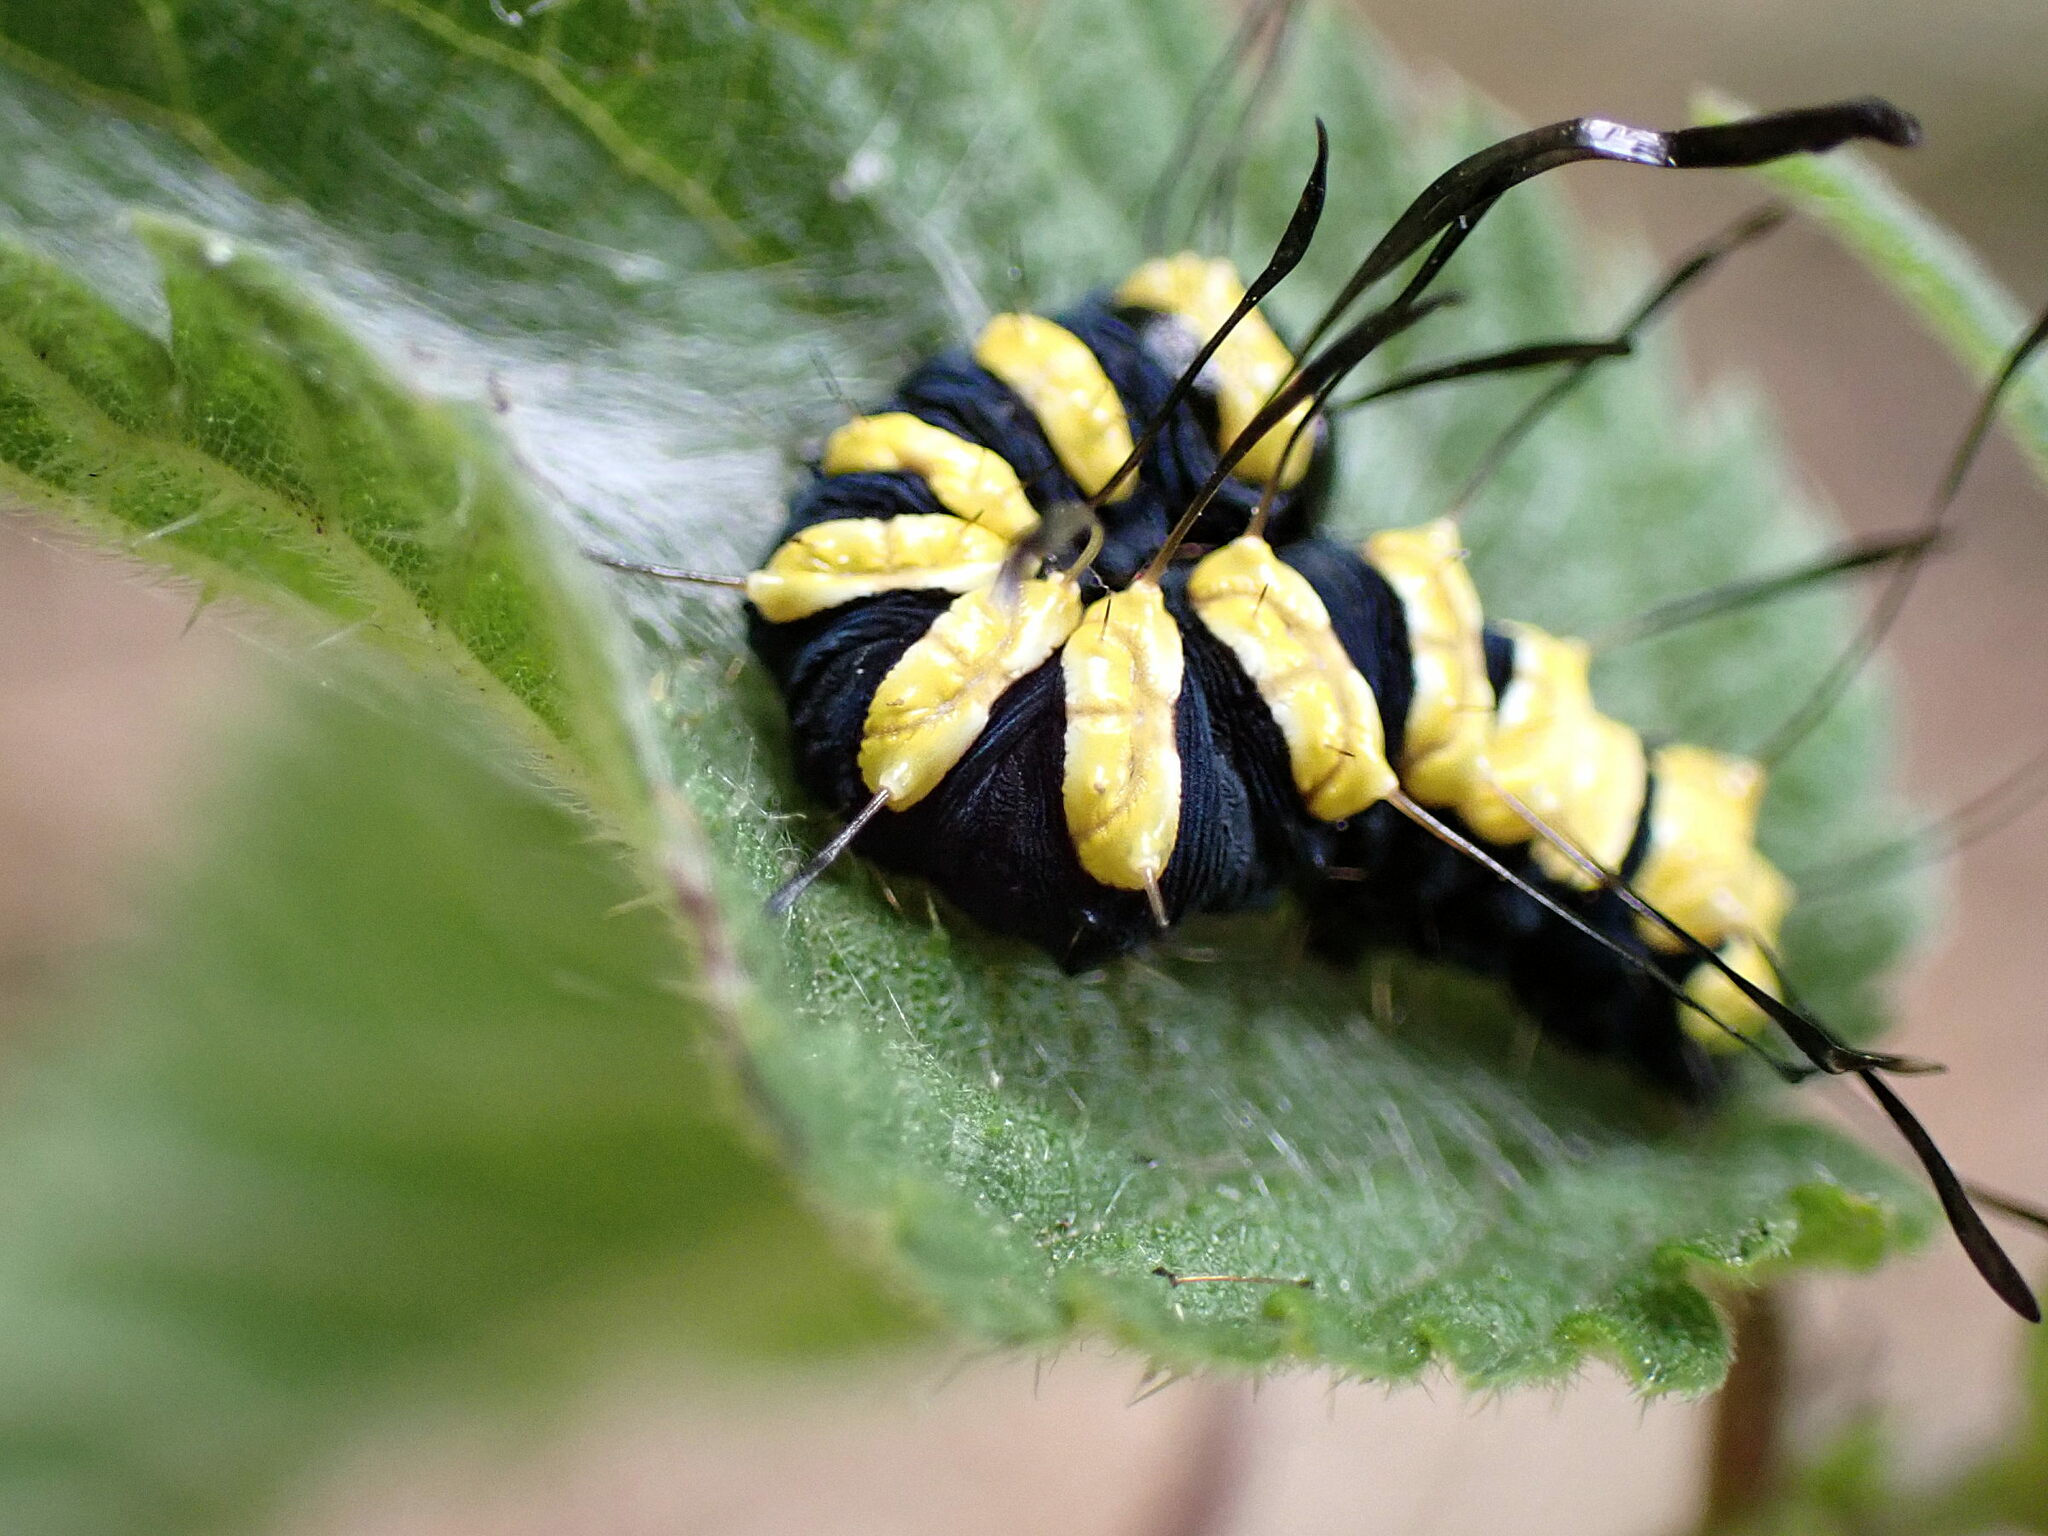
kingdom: Animalia
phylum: Arthropoda
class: Insecta
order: Lepidoptera
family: Noctuidae
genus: Acronicta
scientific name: Acronicta alni
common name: Alder moth
